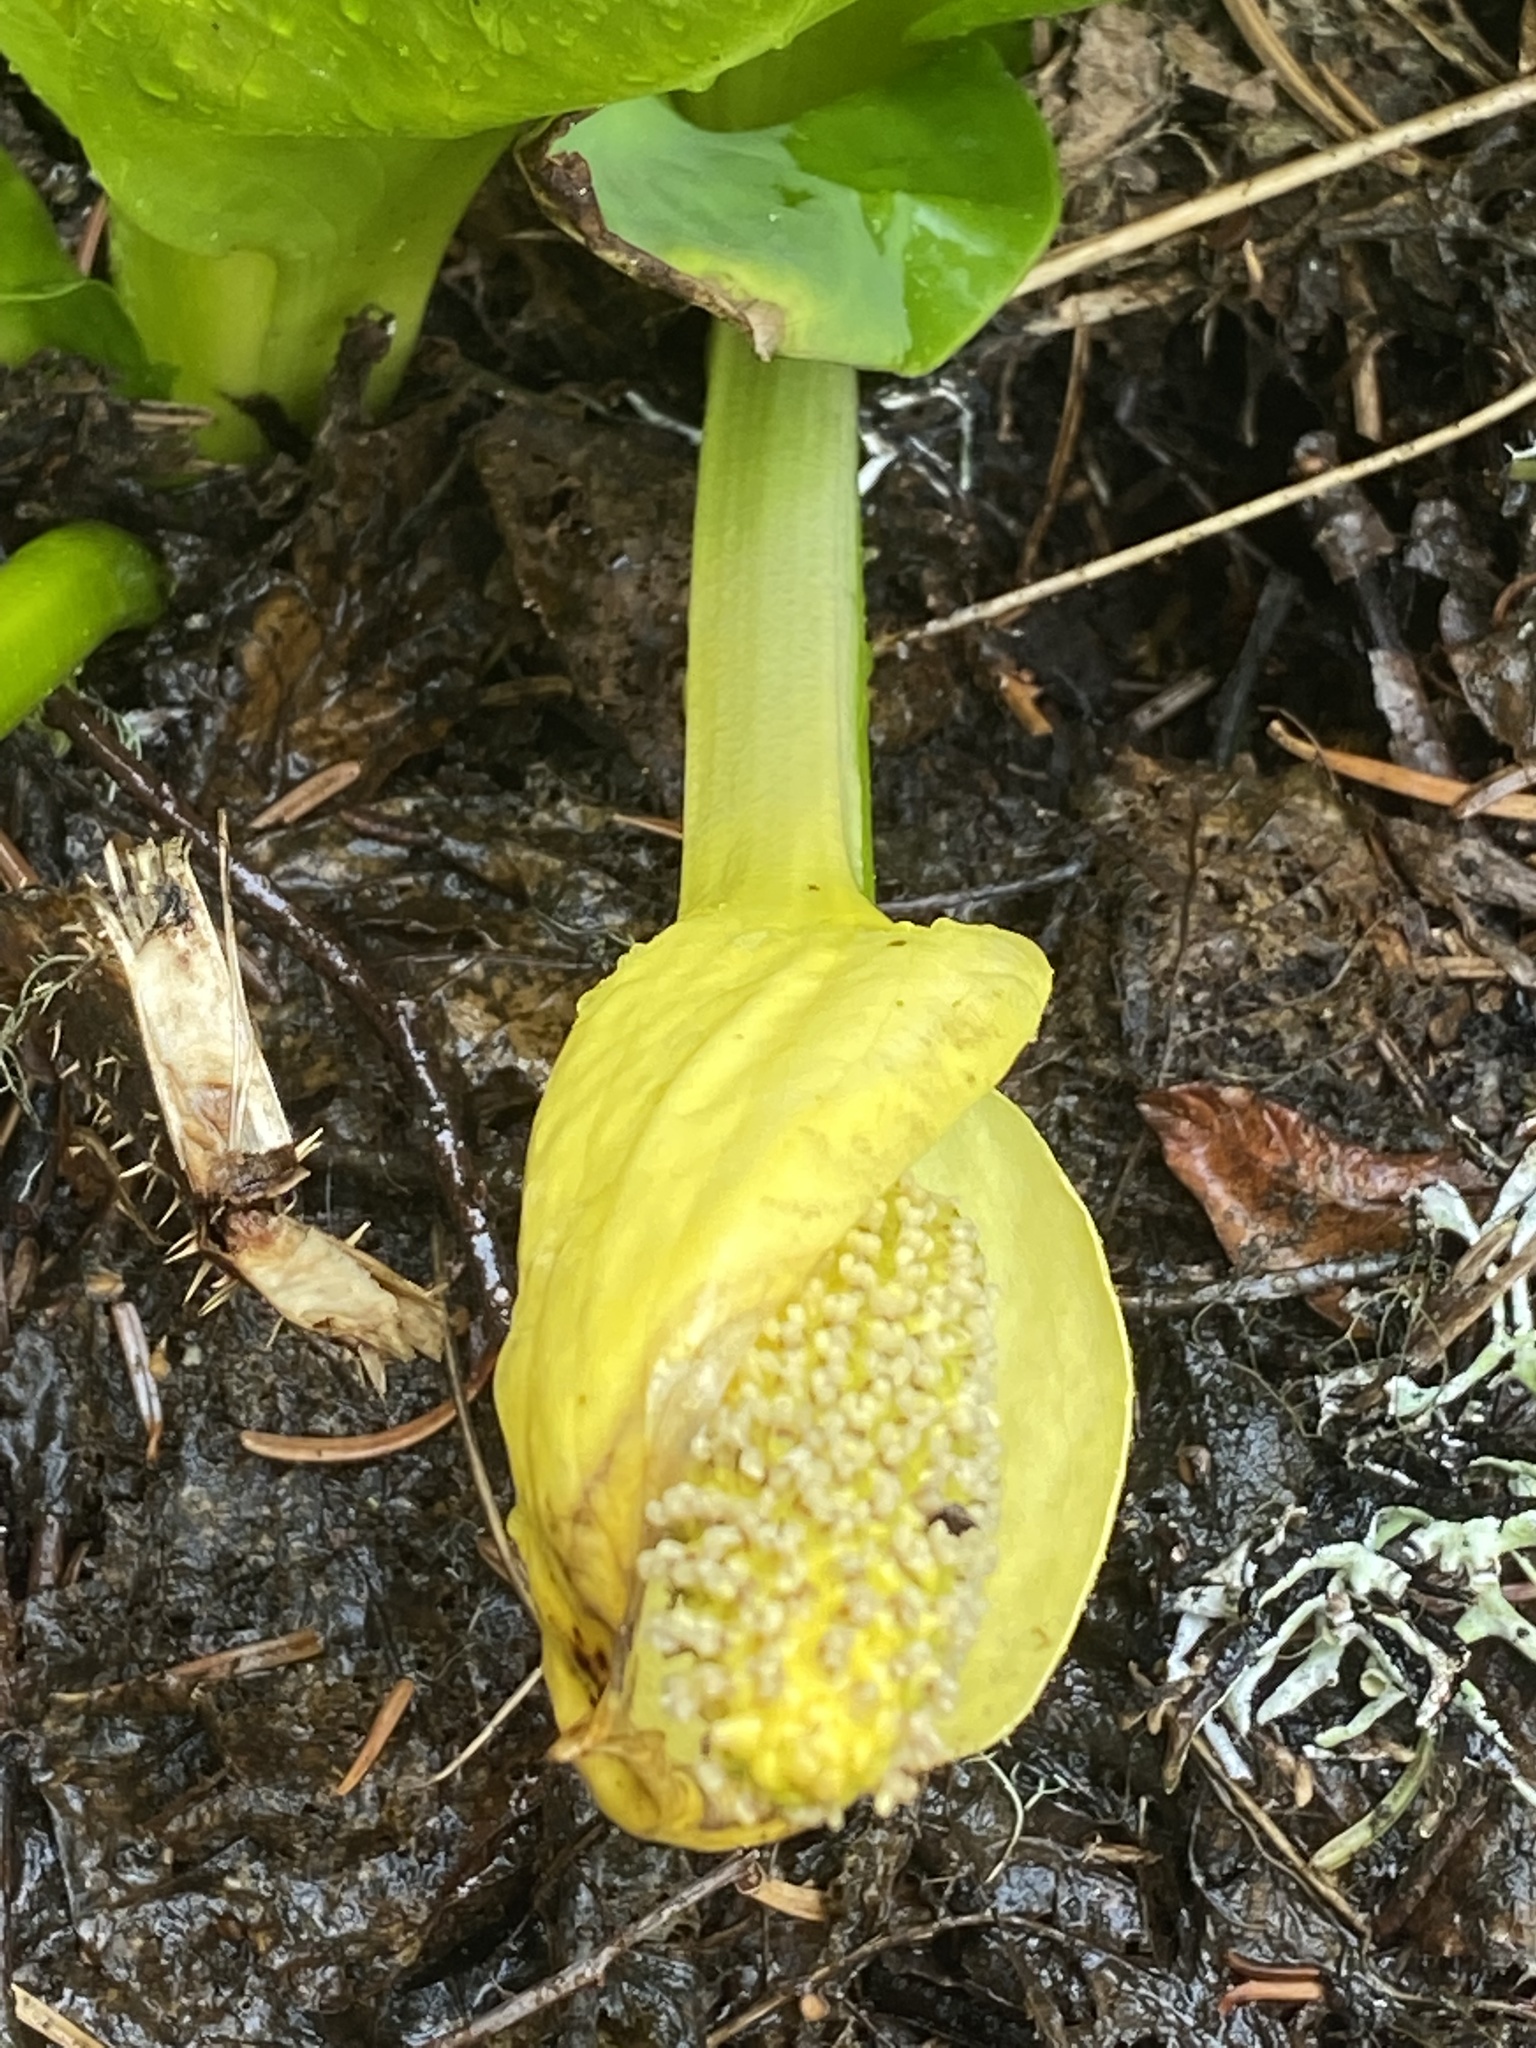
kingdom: Plantae
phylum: Tracheophyta
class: Liliopsida
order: Alismatales
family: Araceae
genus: Lysichiton
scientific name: Lysichiton americanus
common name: American skunk cabbage
